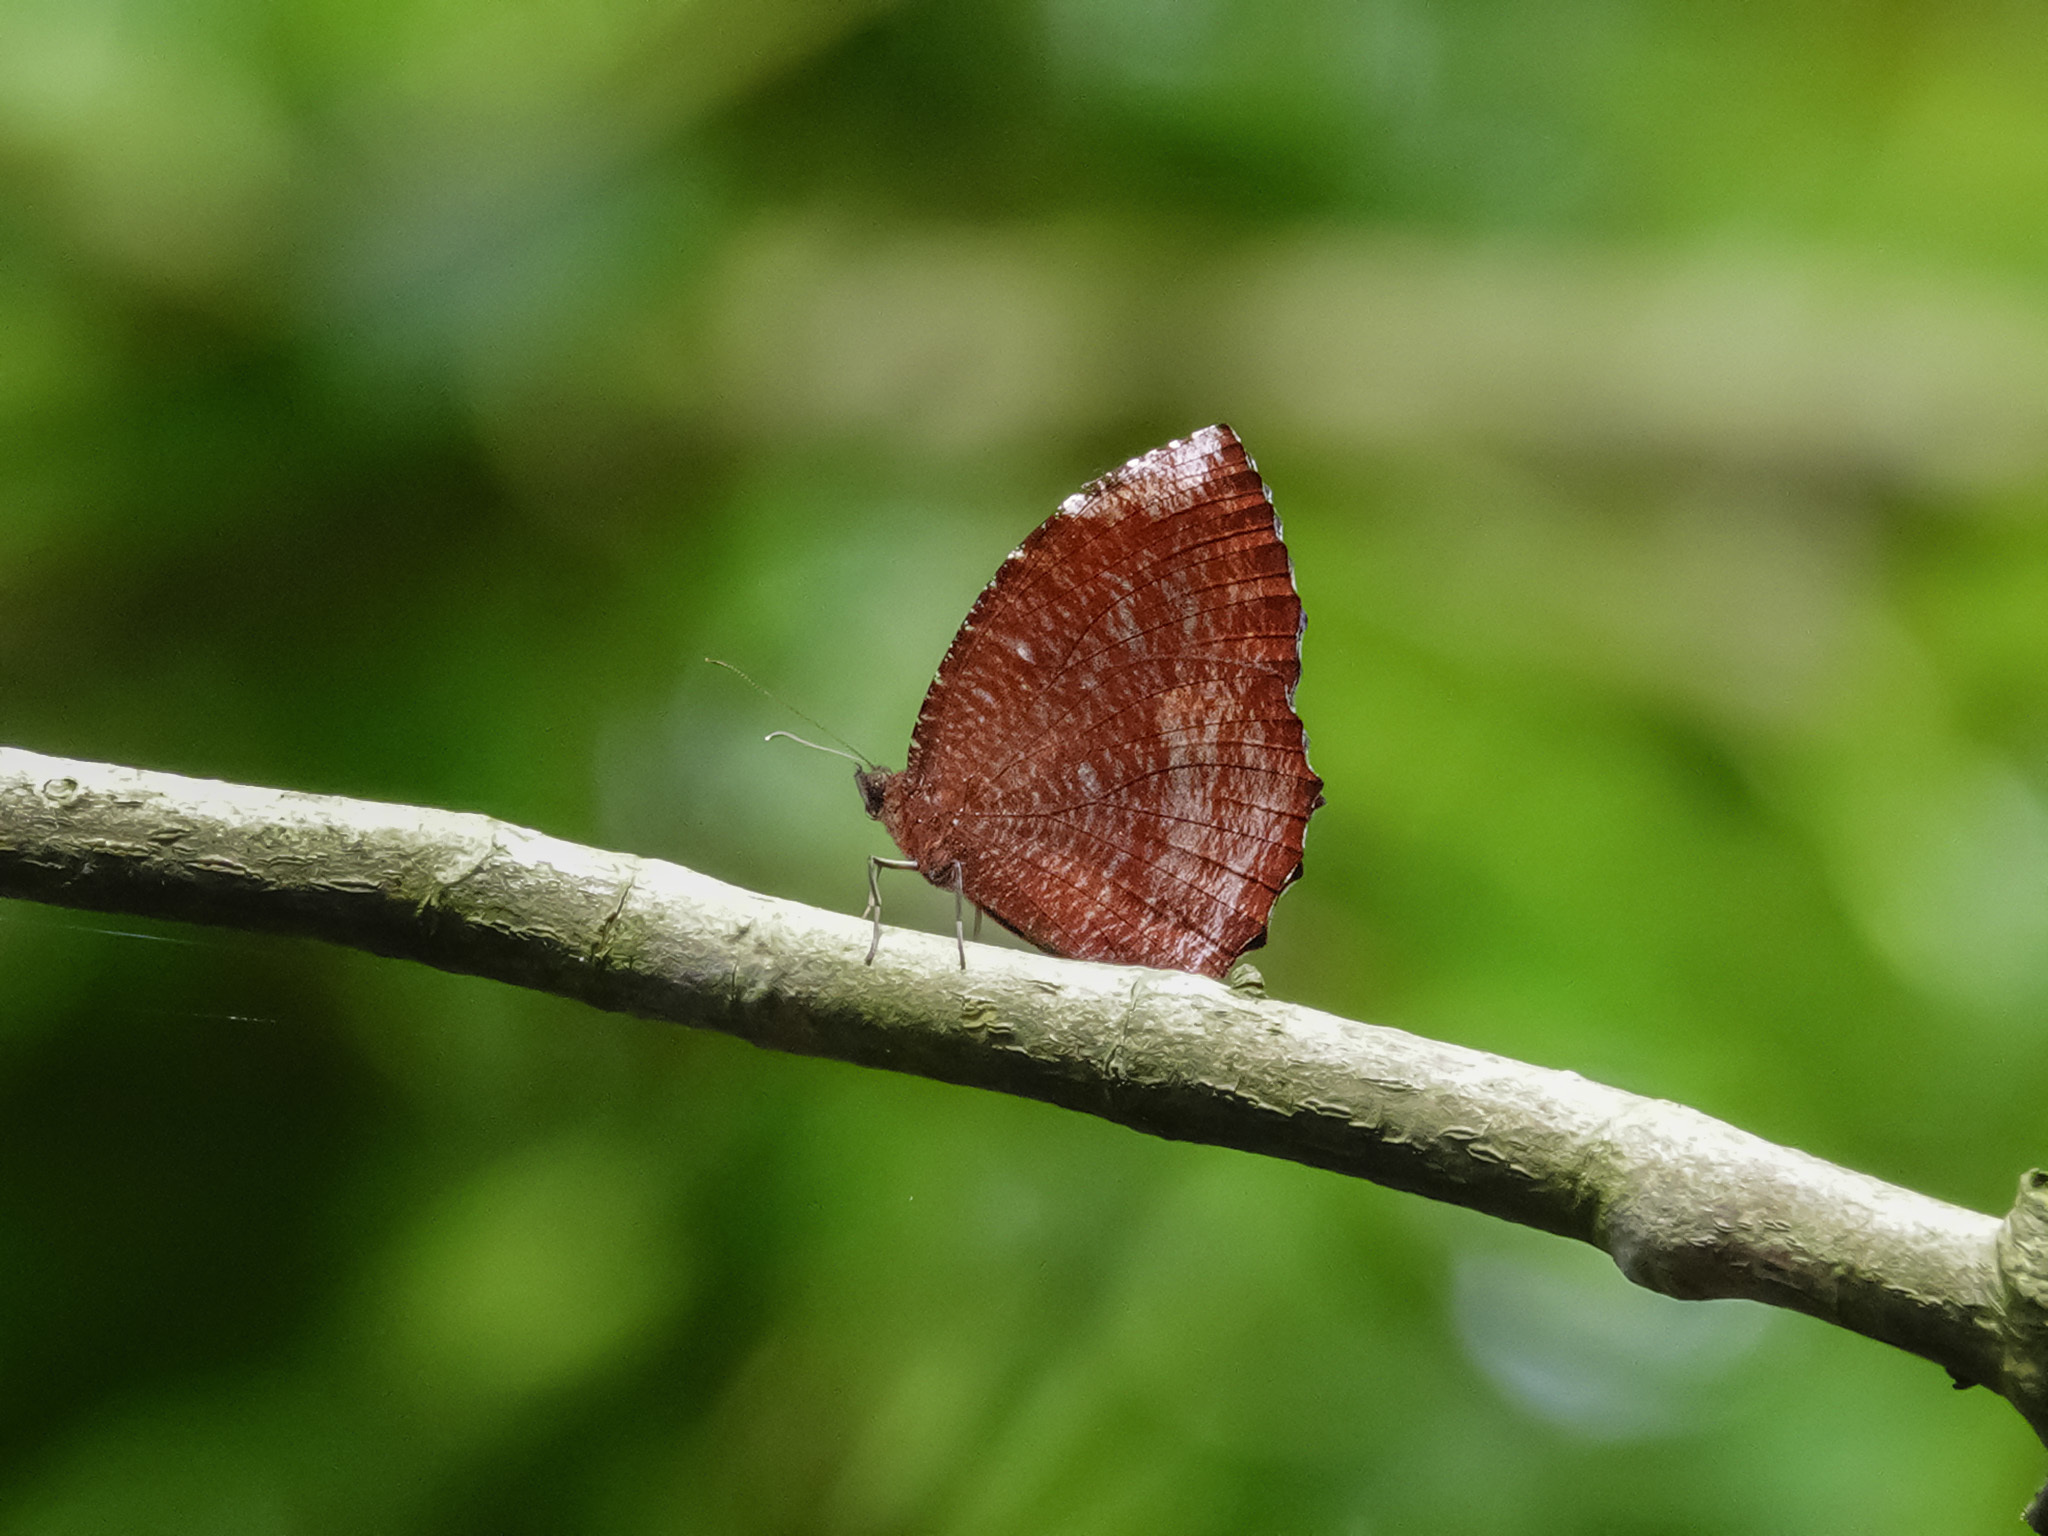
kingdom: Animalia
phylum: Arthropoda
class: Insecta
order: Lepidoptera
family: Nymphalidae
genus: Elymnias
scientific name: Elymnias hypermnestra
